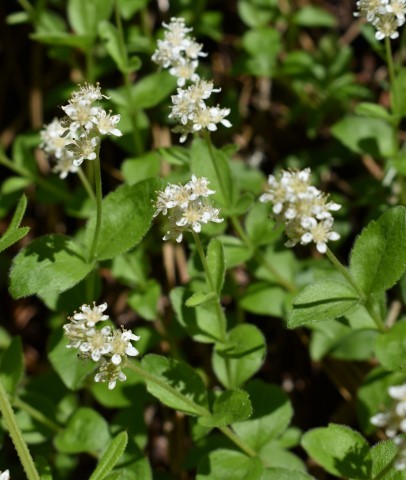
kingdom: Plantae
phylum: Tracheophyta
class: Magnoliopsida
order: Cornales
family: Hydrangeaceae
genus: Whipplea
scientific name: Whipplea modesta
